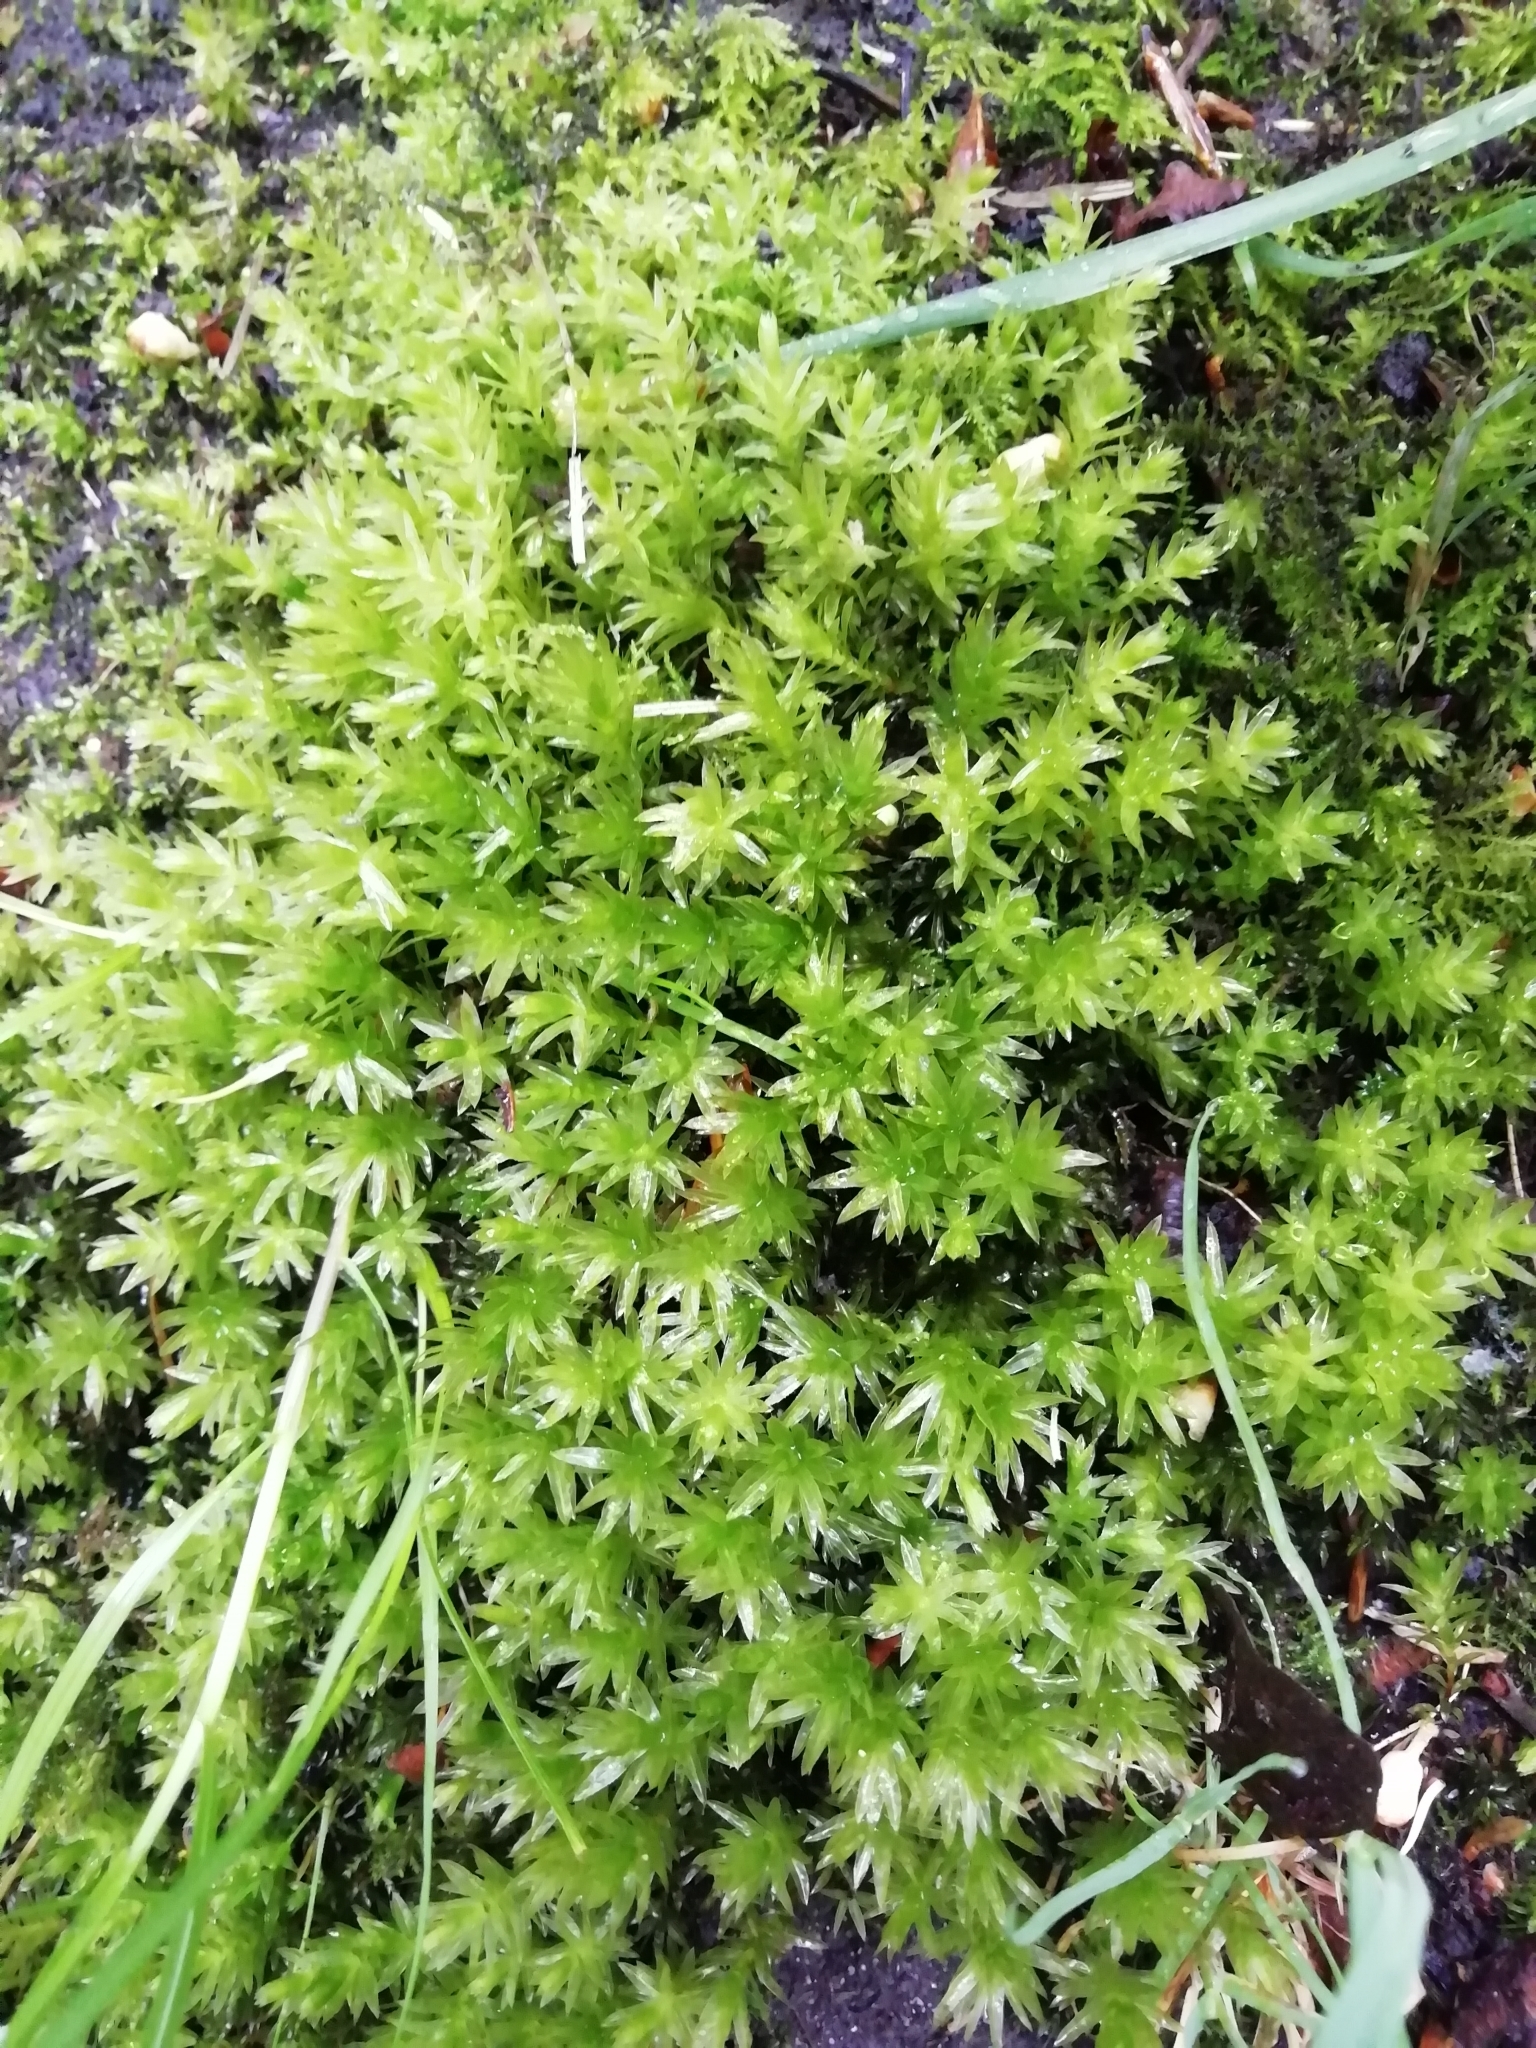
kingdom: Plantae
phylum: Bryophyta
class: Bryopsida
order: Bryales
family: Mniaceae
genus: Mnium
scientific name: Mnium hornum
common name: Swan's-neck leafy moss
